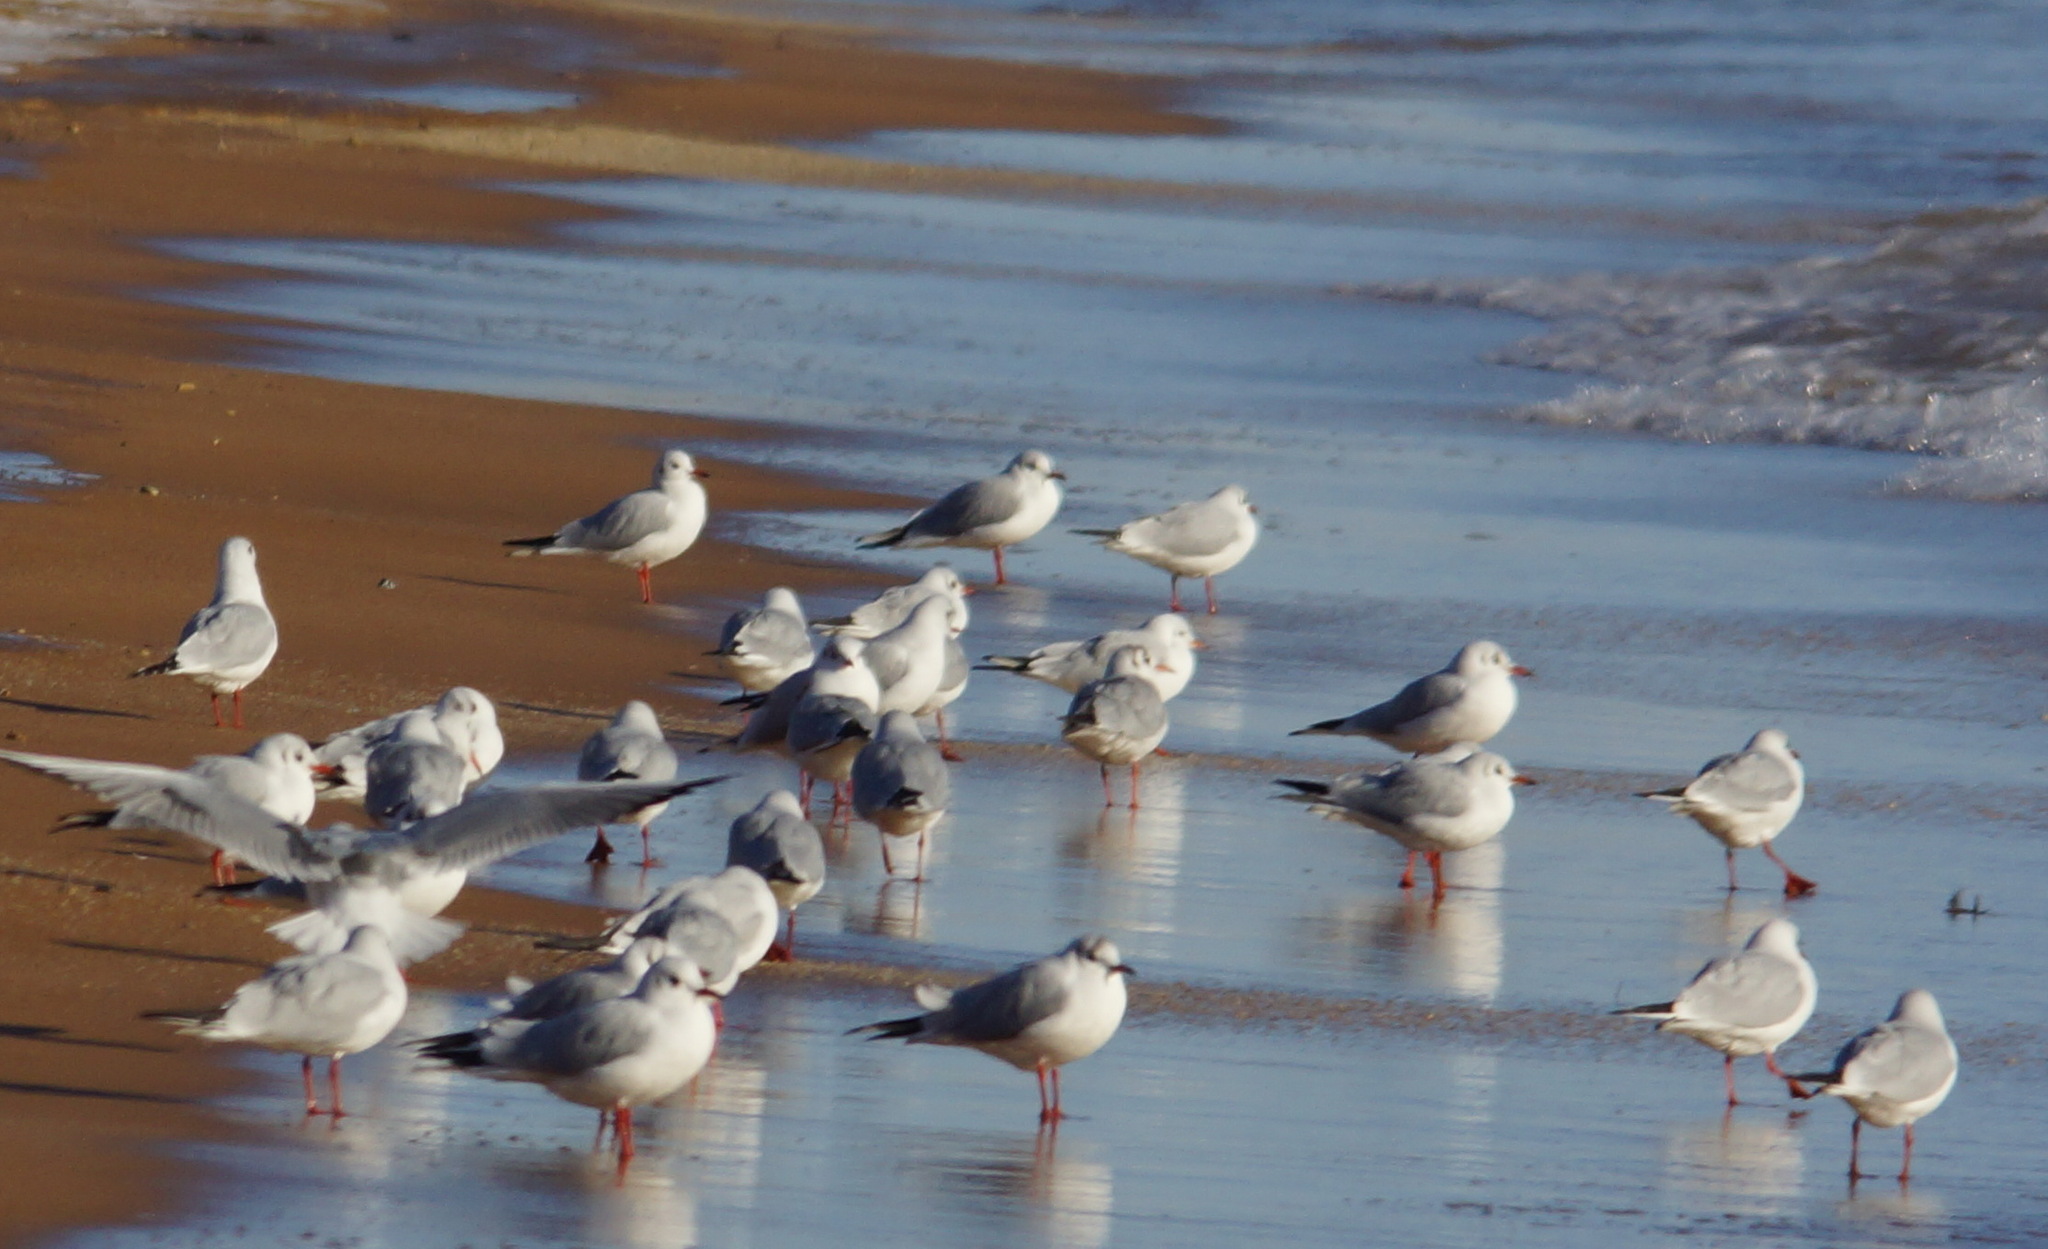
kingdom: Animalia
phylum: Chordata
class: Aves
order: Charadriiformes
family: Laridae
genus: Chroicocephalus
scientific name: Chroicocephalus ridibundus
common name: Black-headed gull
